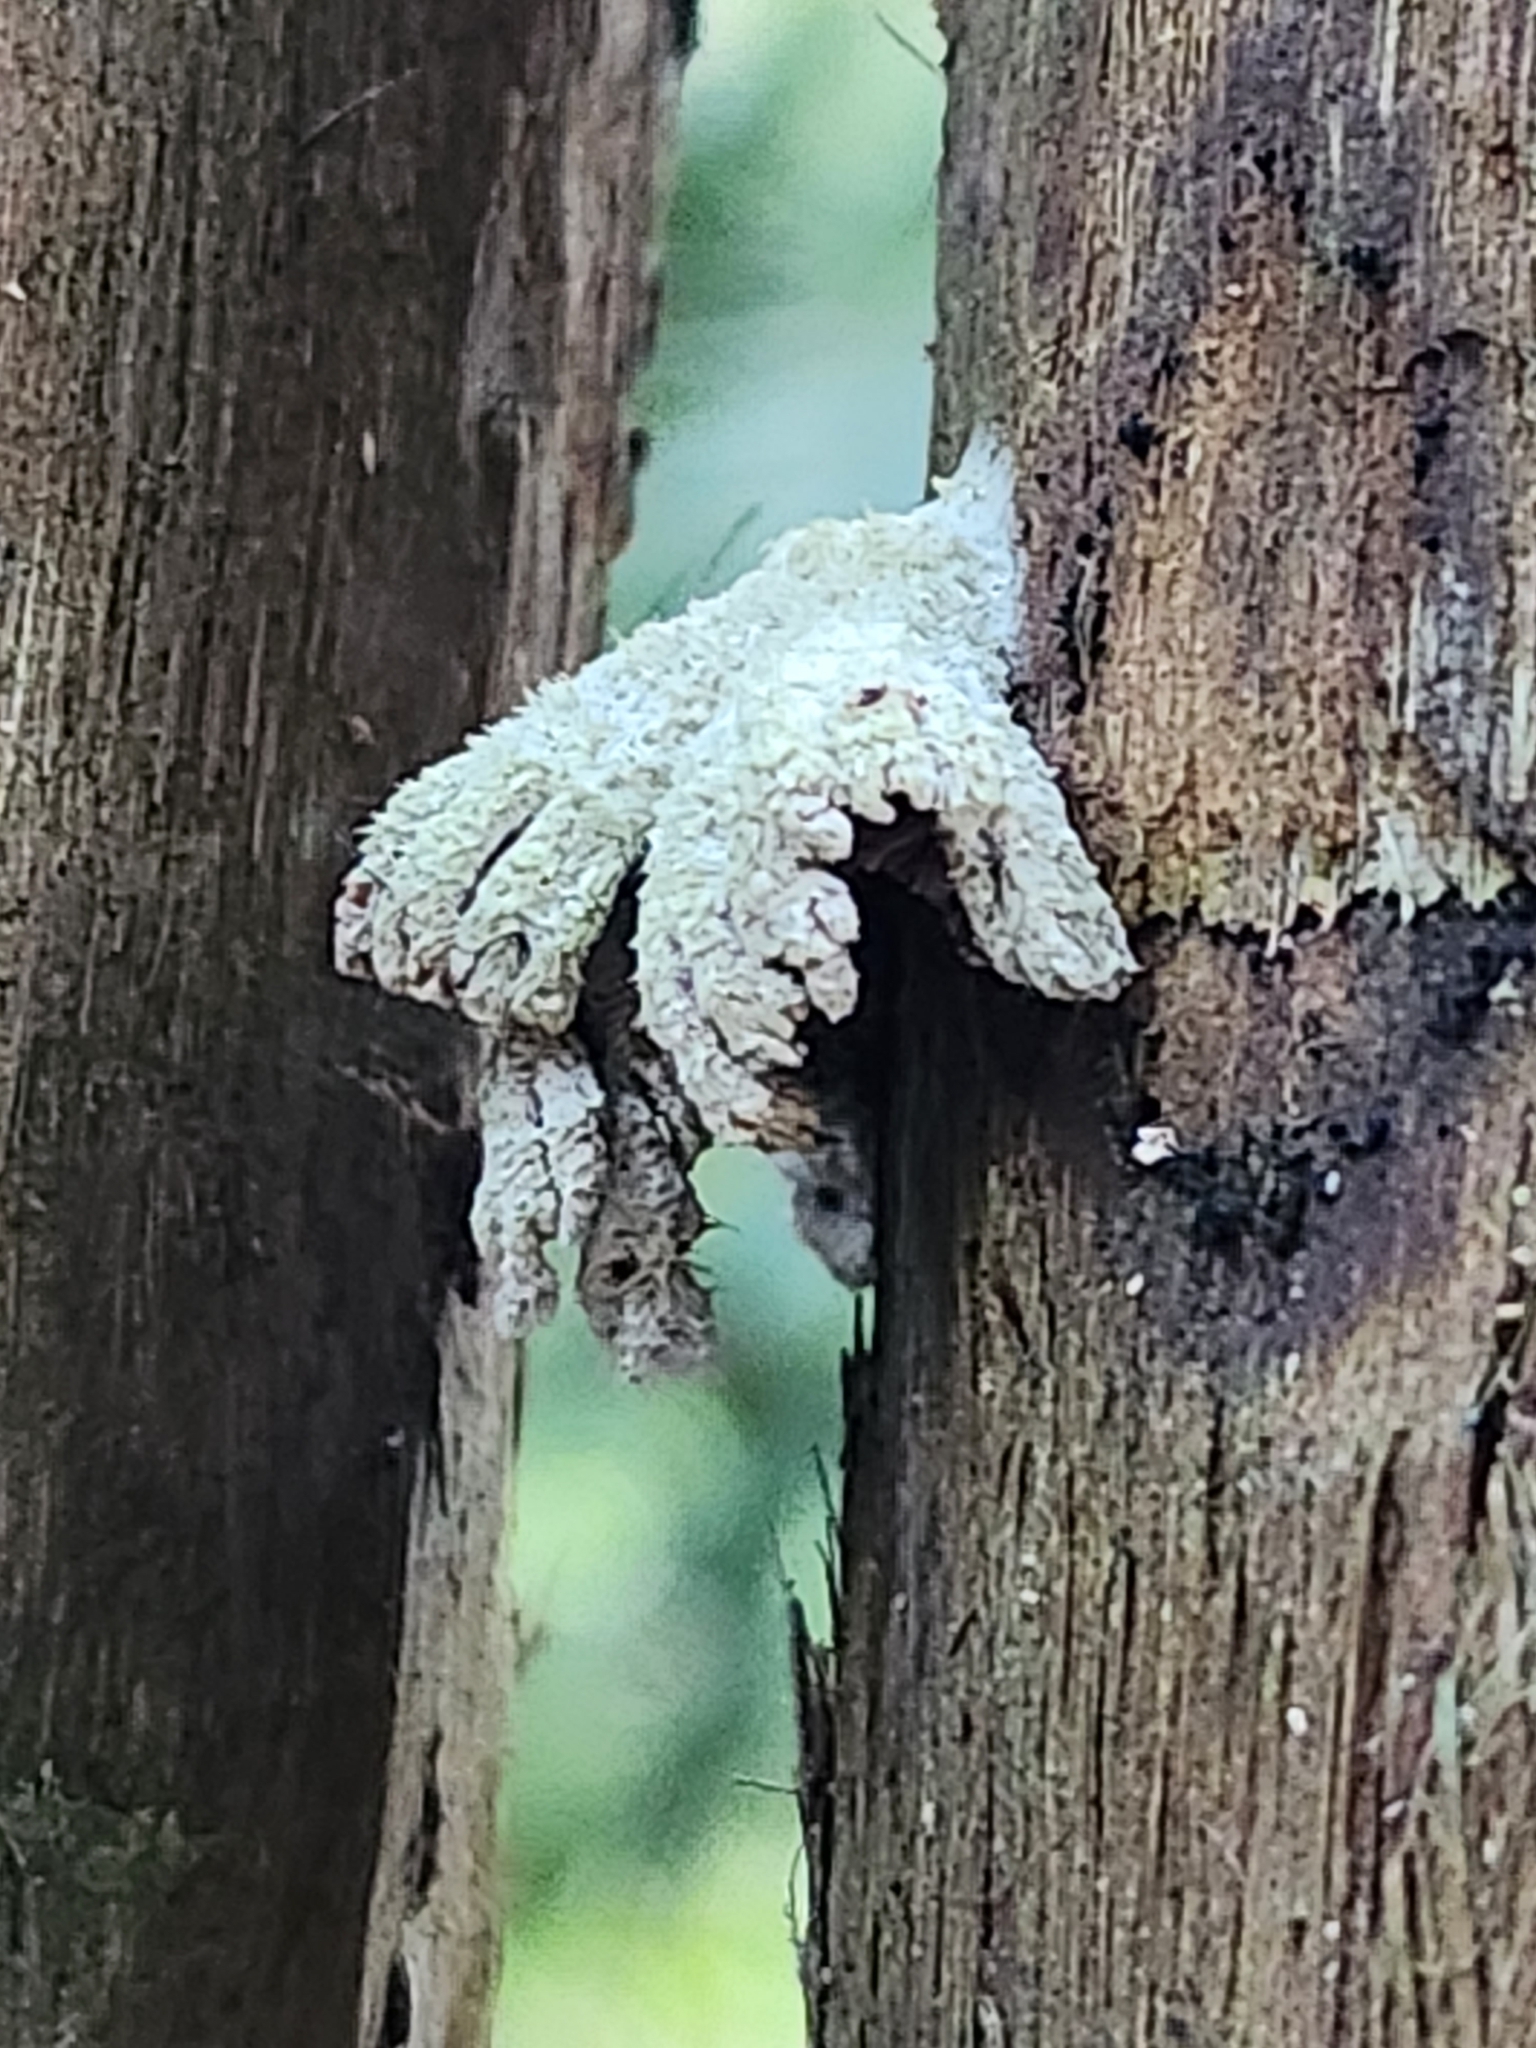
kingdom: Fungi
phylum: Basidiomycota
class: Agaricomycetes
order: Agaricales
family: Schizophyllaceae
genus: Schizophyllum
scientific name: Schizophyllum commune
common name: Common porecrust
